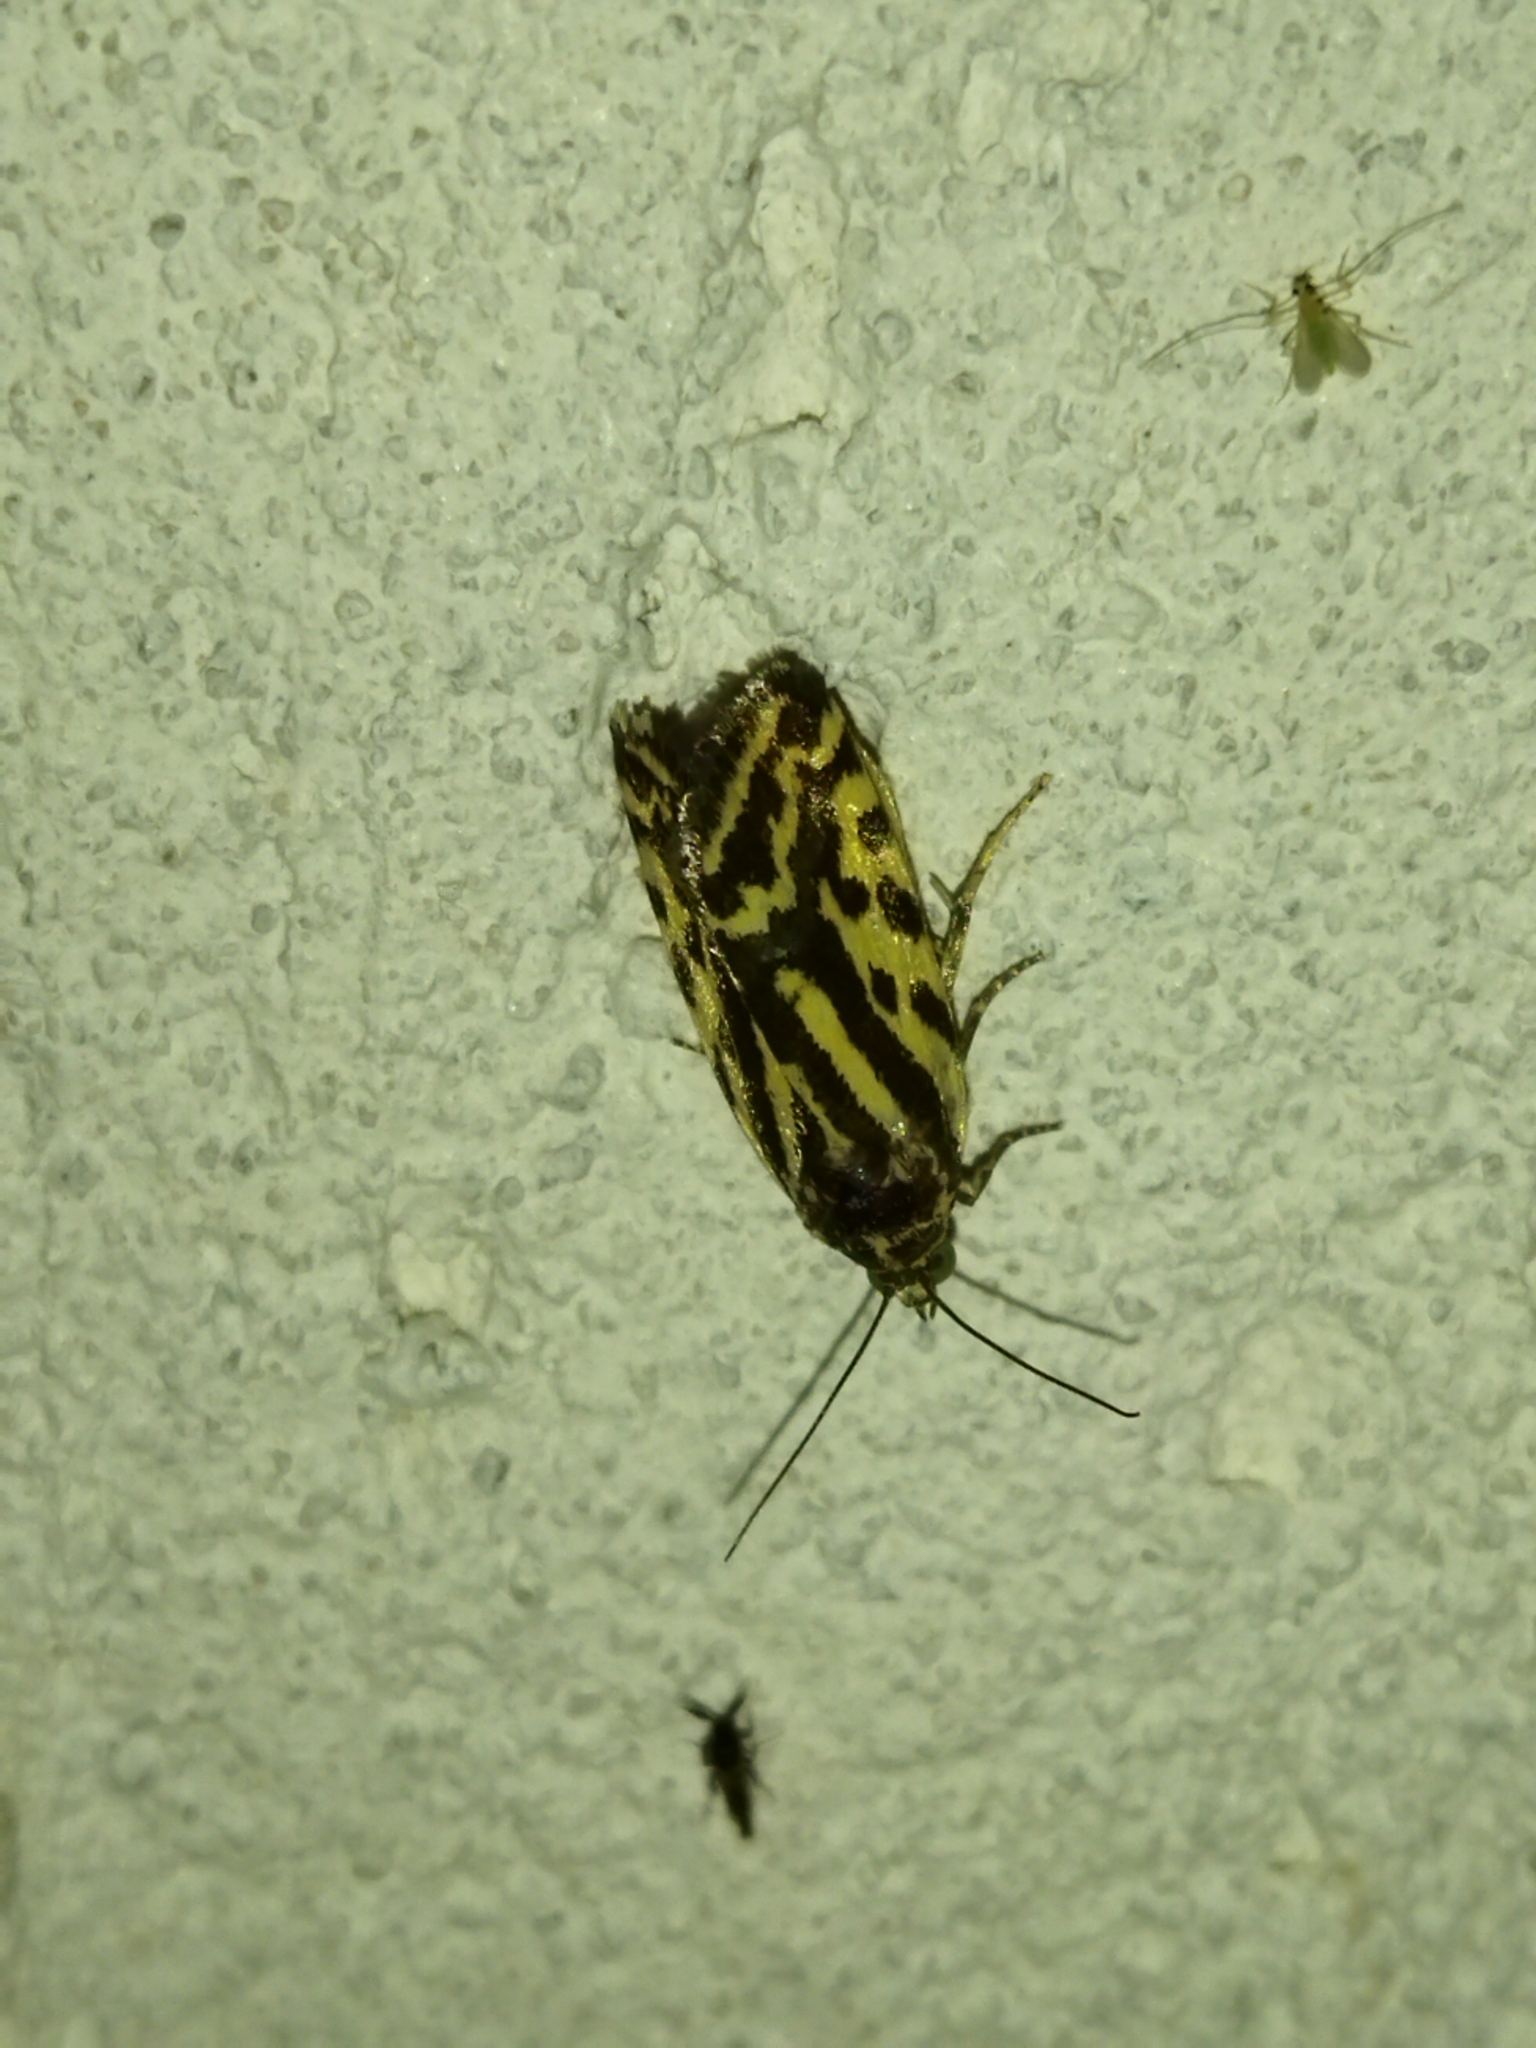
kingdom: Animalia
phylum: Arthropoda
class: Insecta
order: Lepidoptera
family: Noctuidae
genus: Acontia
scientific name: Acontia trabealis
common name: Spotted sulphur
